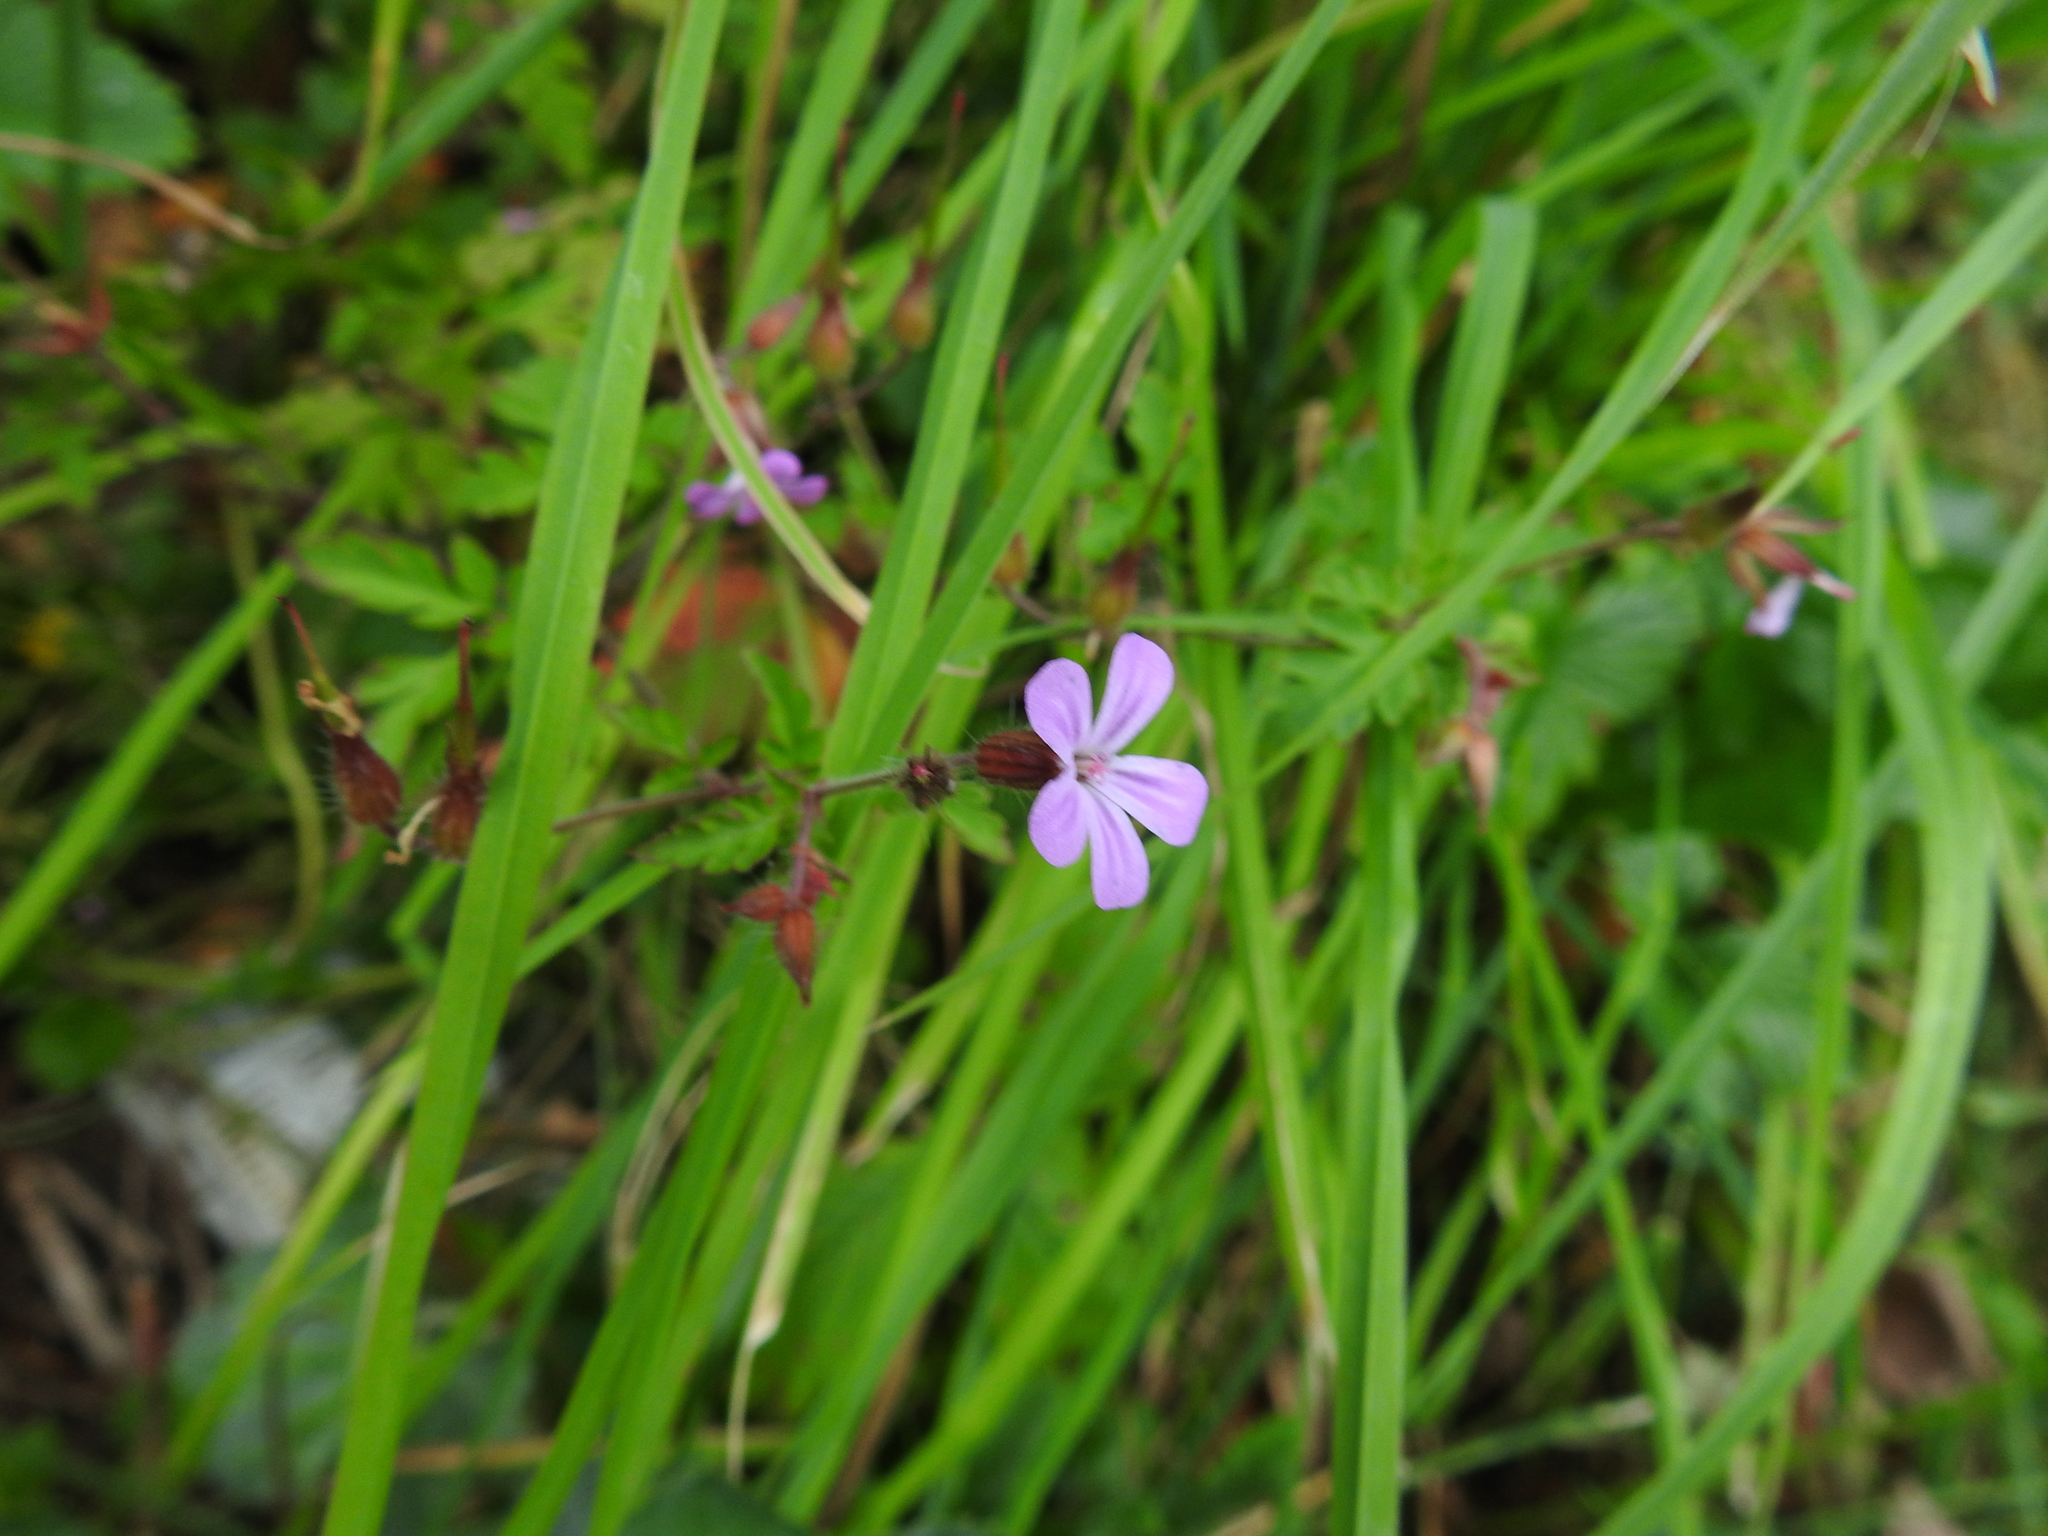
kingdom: Plantae
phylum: Tracheophyta
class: Magnoliopsida
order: Geraniales
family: Geraniaceae
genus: Geranium
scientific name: Geranium robertianum
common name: Herb-robert
